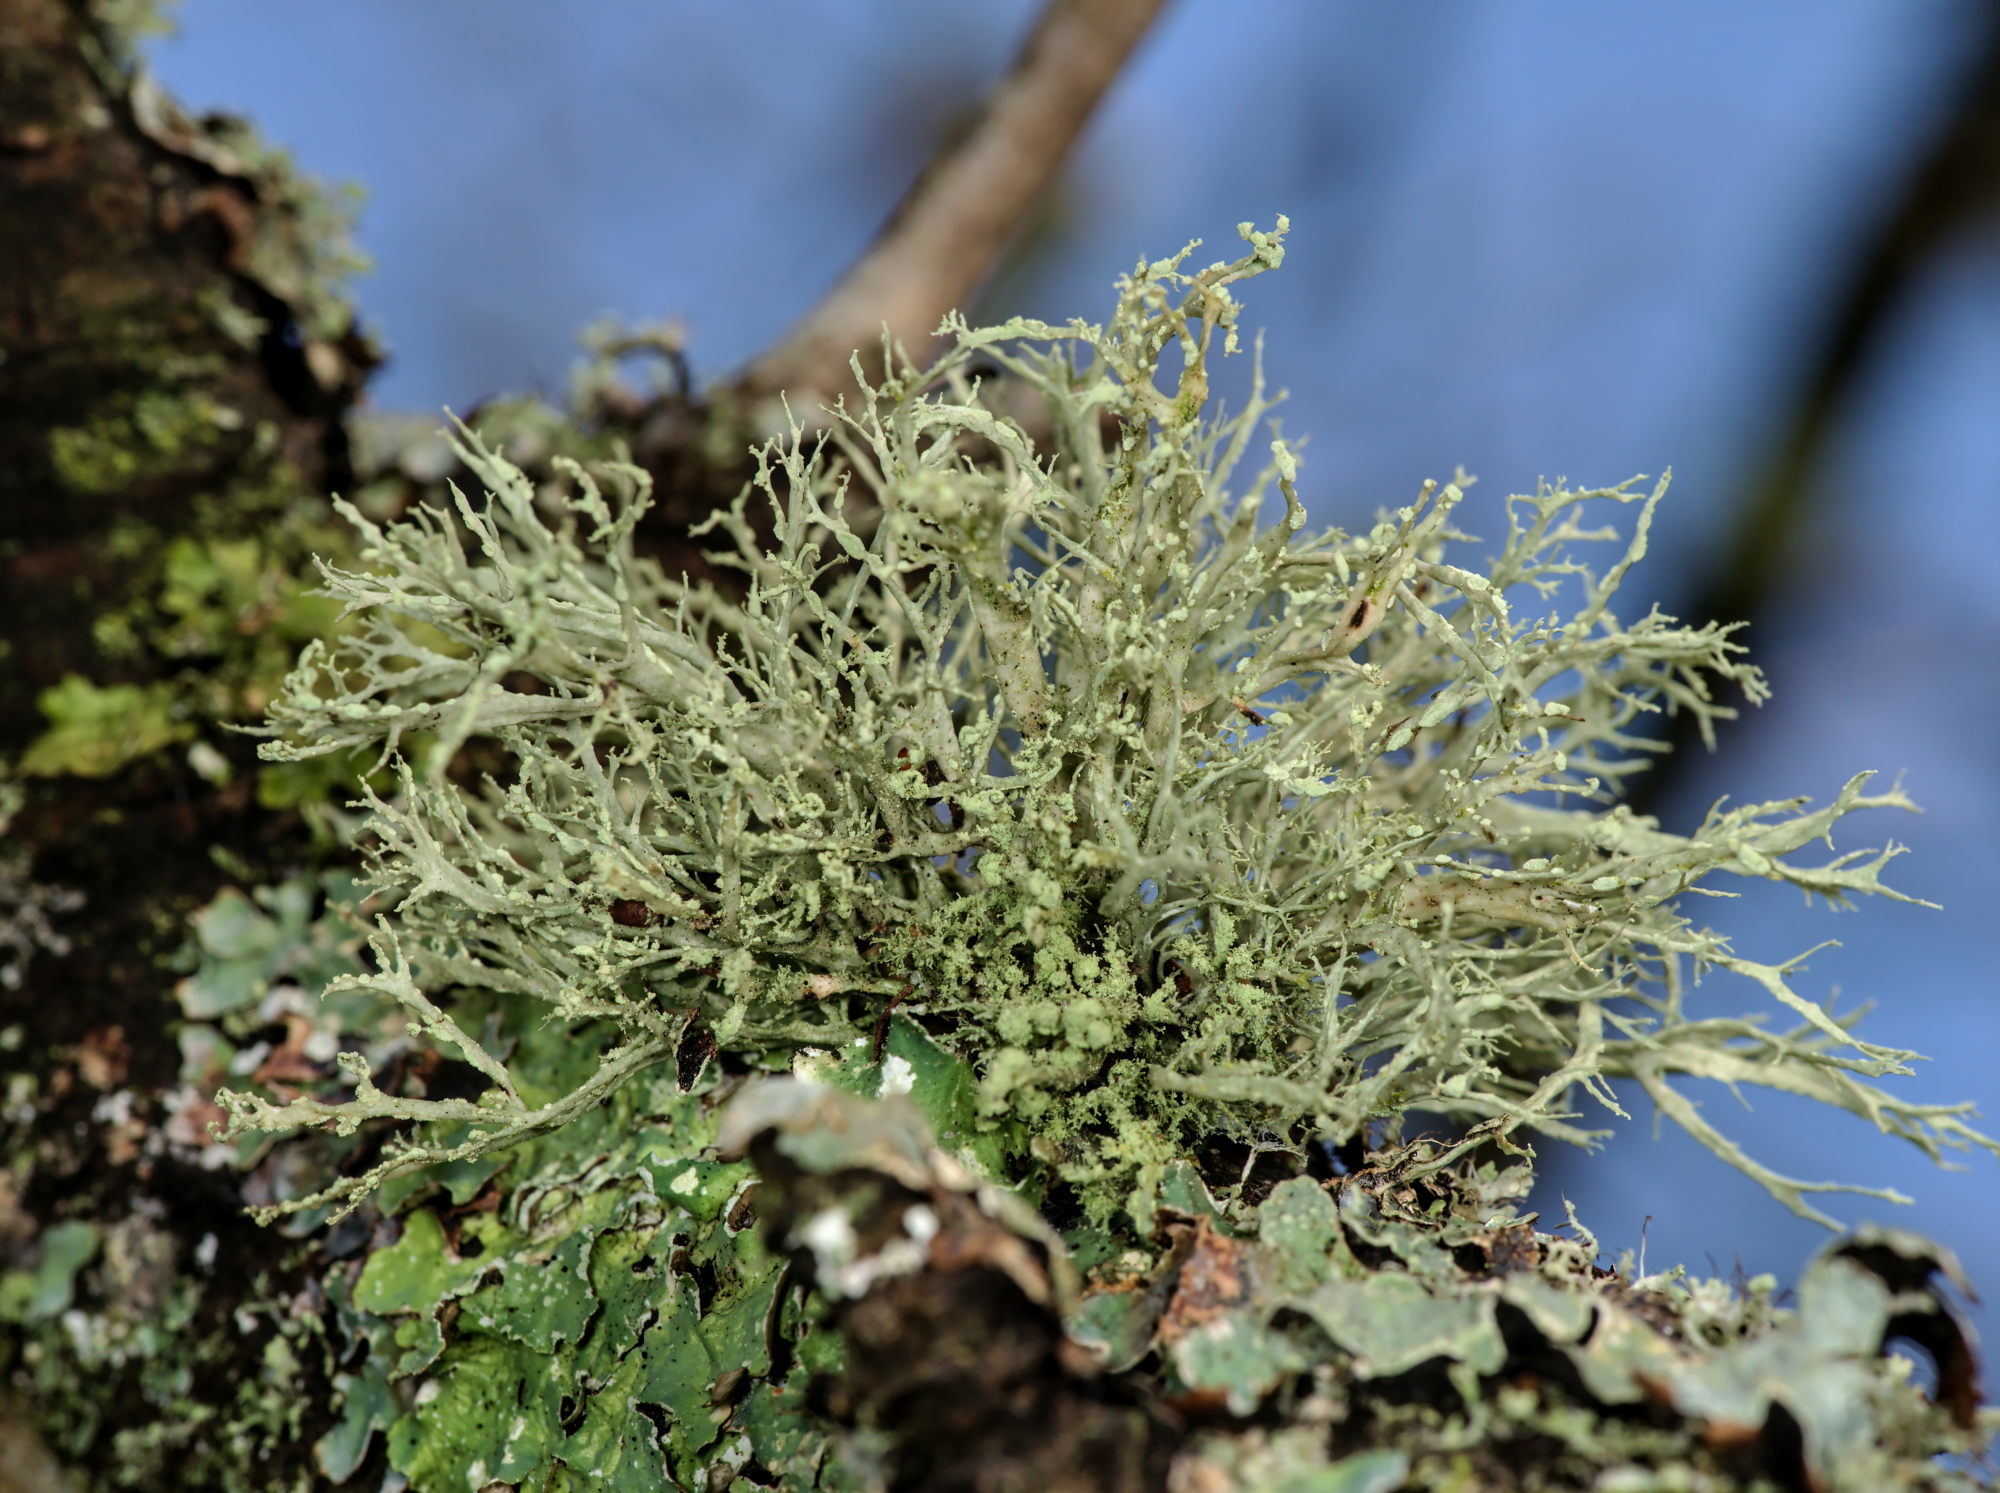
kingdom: Fungi
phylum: Ascomycota
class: Lecanoromycetes
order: Lecanorales
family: Ramalinaceae
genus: Ramalina
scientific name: Ramalina farinacea
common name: Farinose cartilage lichen
